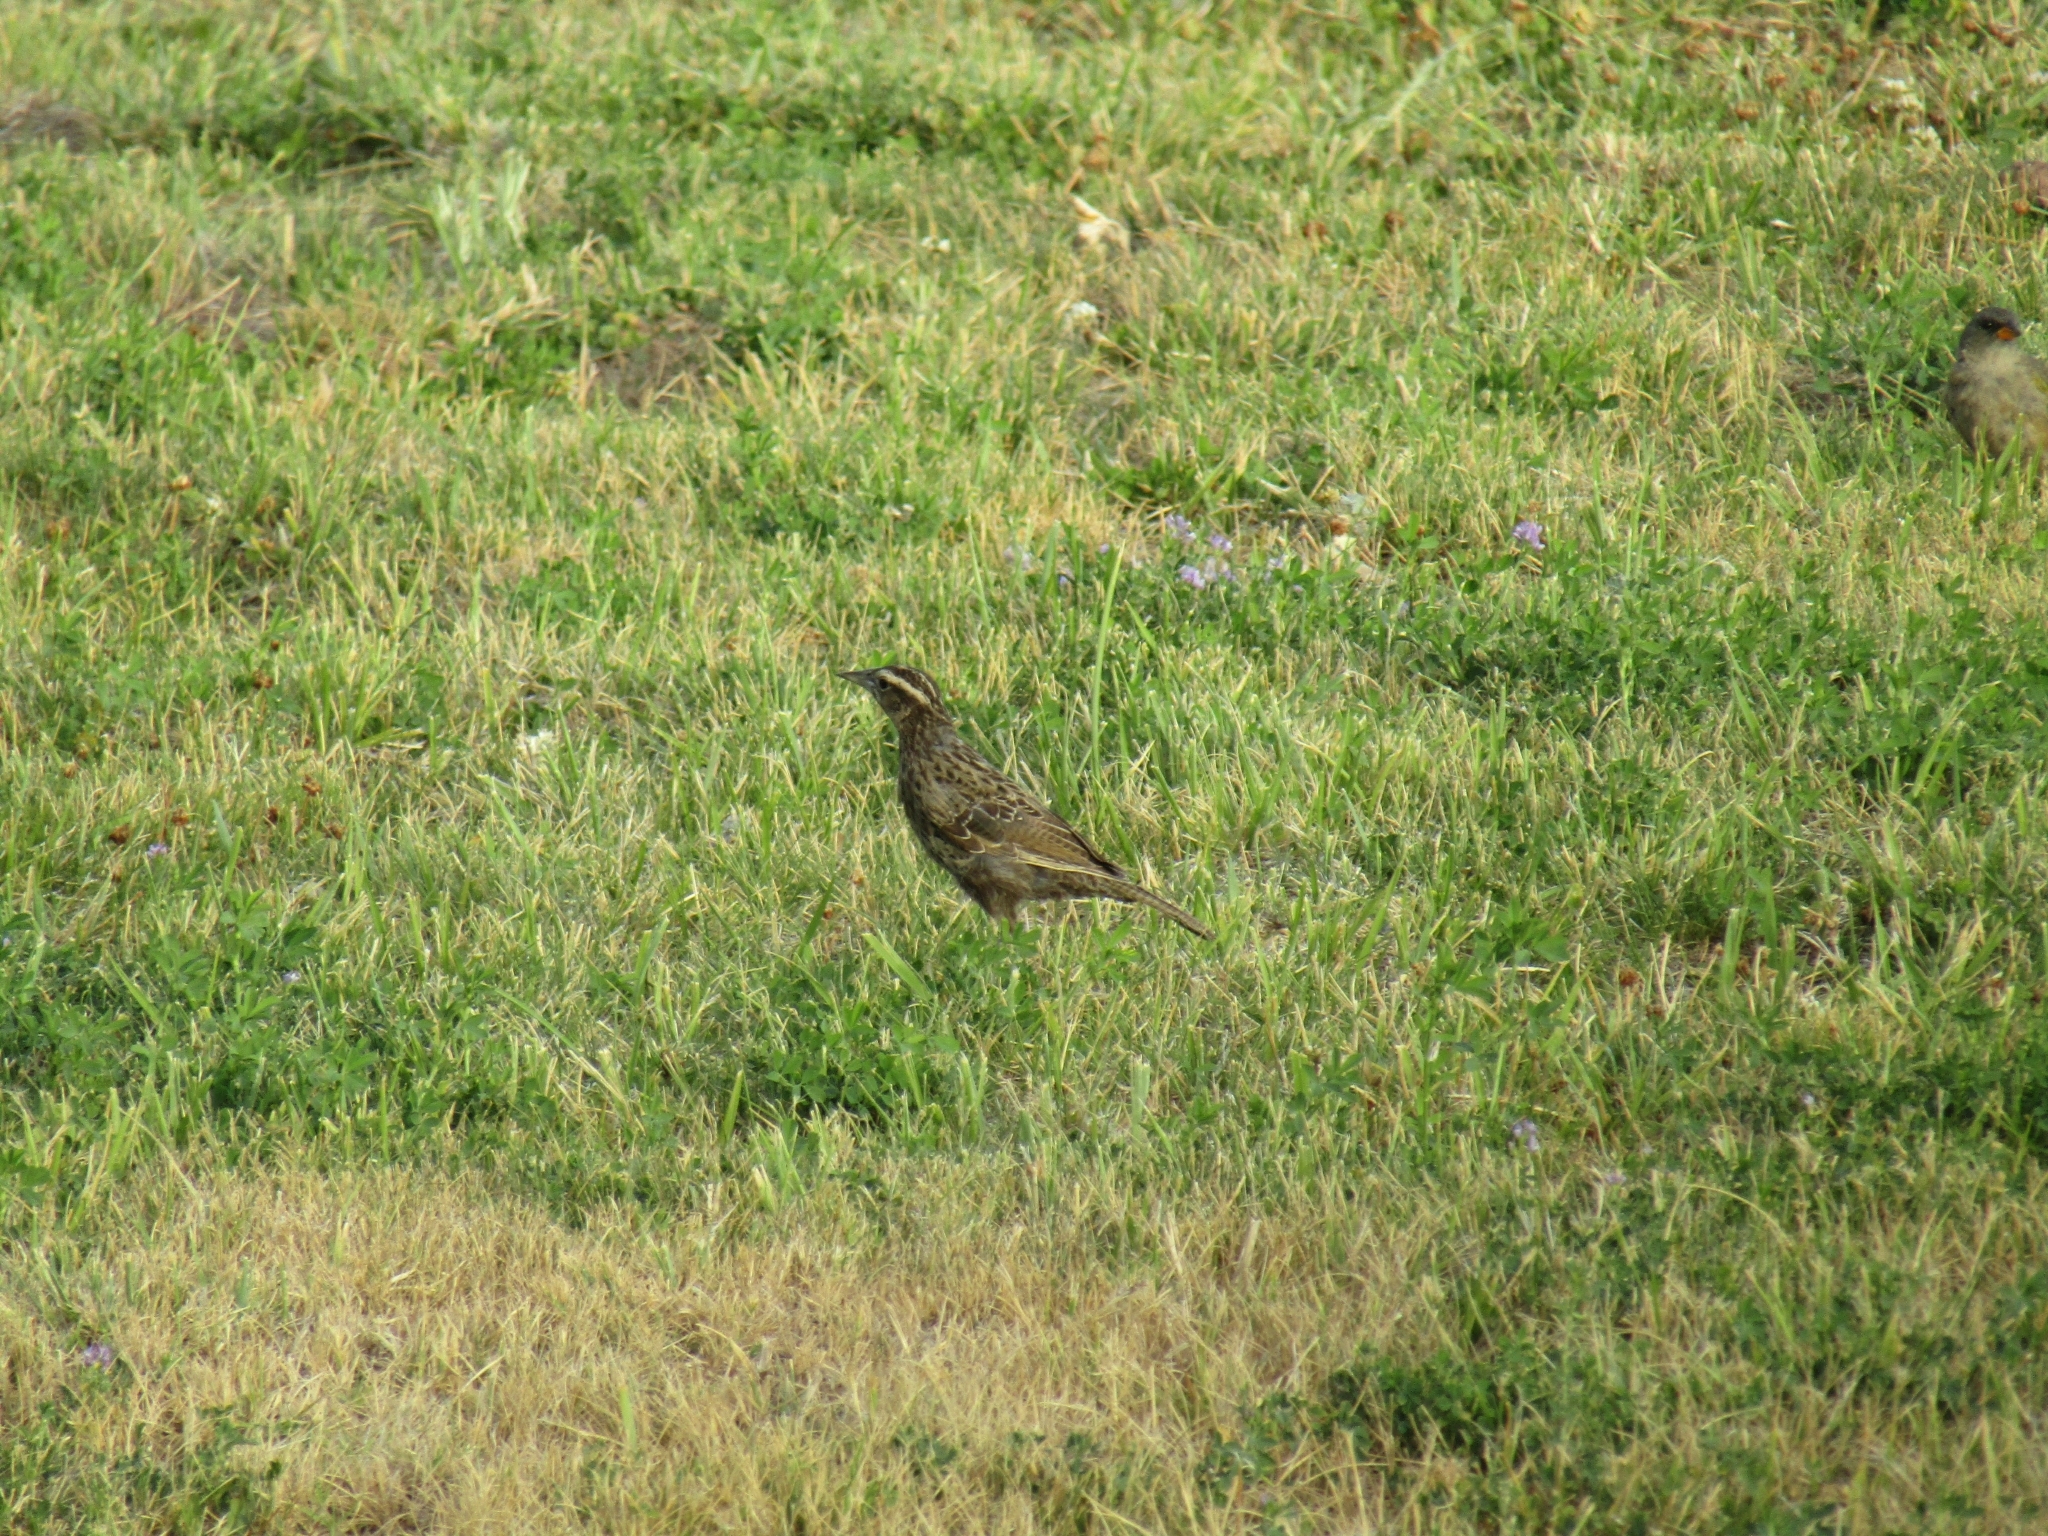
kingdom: Animalia
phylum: Chordata
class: Aves
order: Passeriformes
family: Icteridae
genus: Sturnella
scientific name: Sturnella loyca
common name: Long-tailed meadowlark
